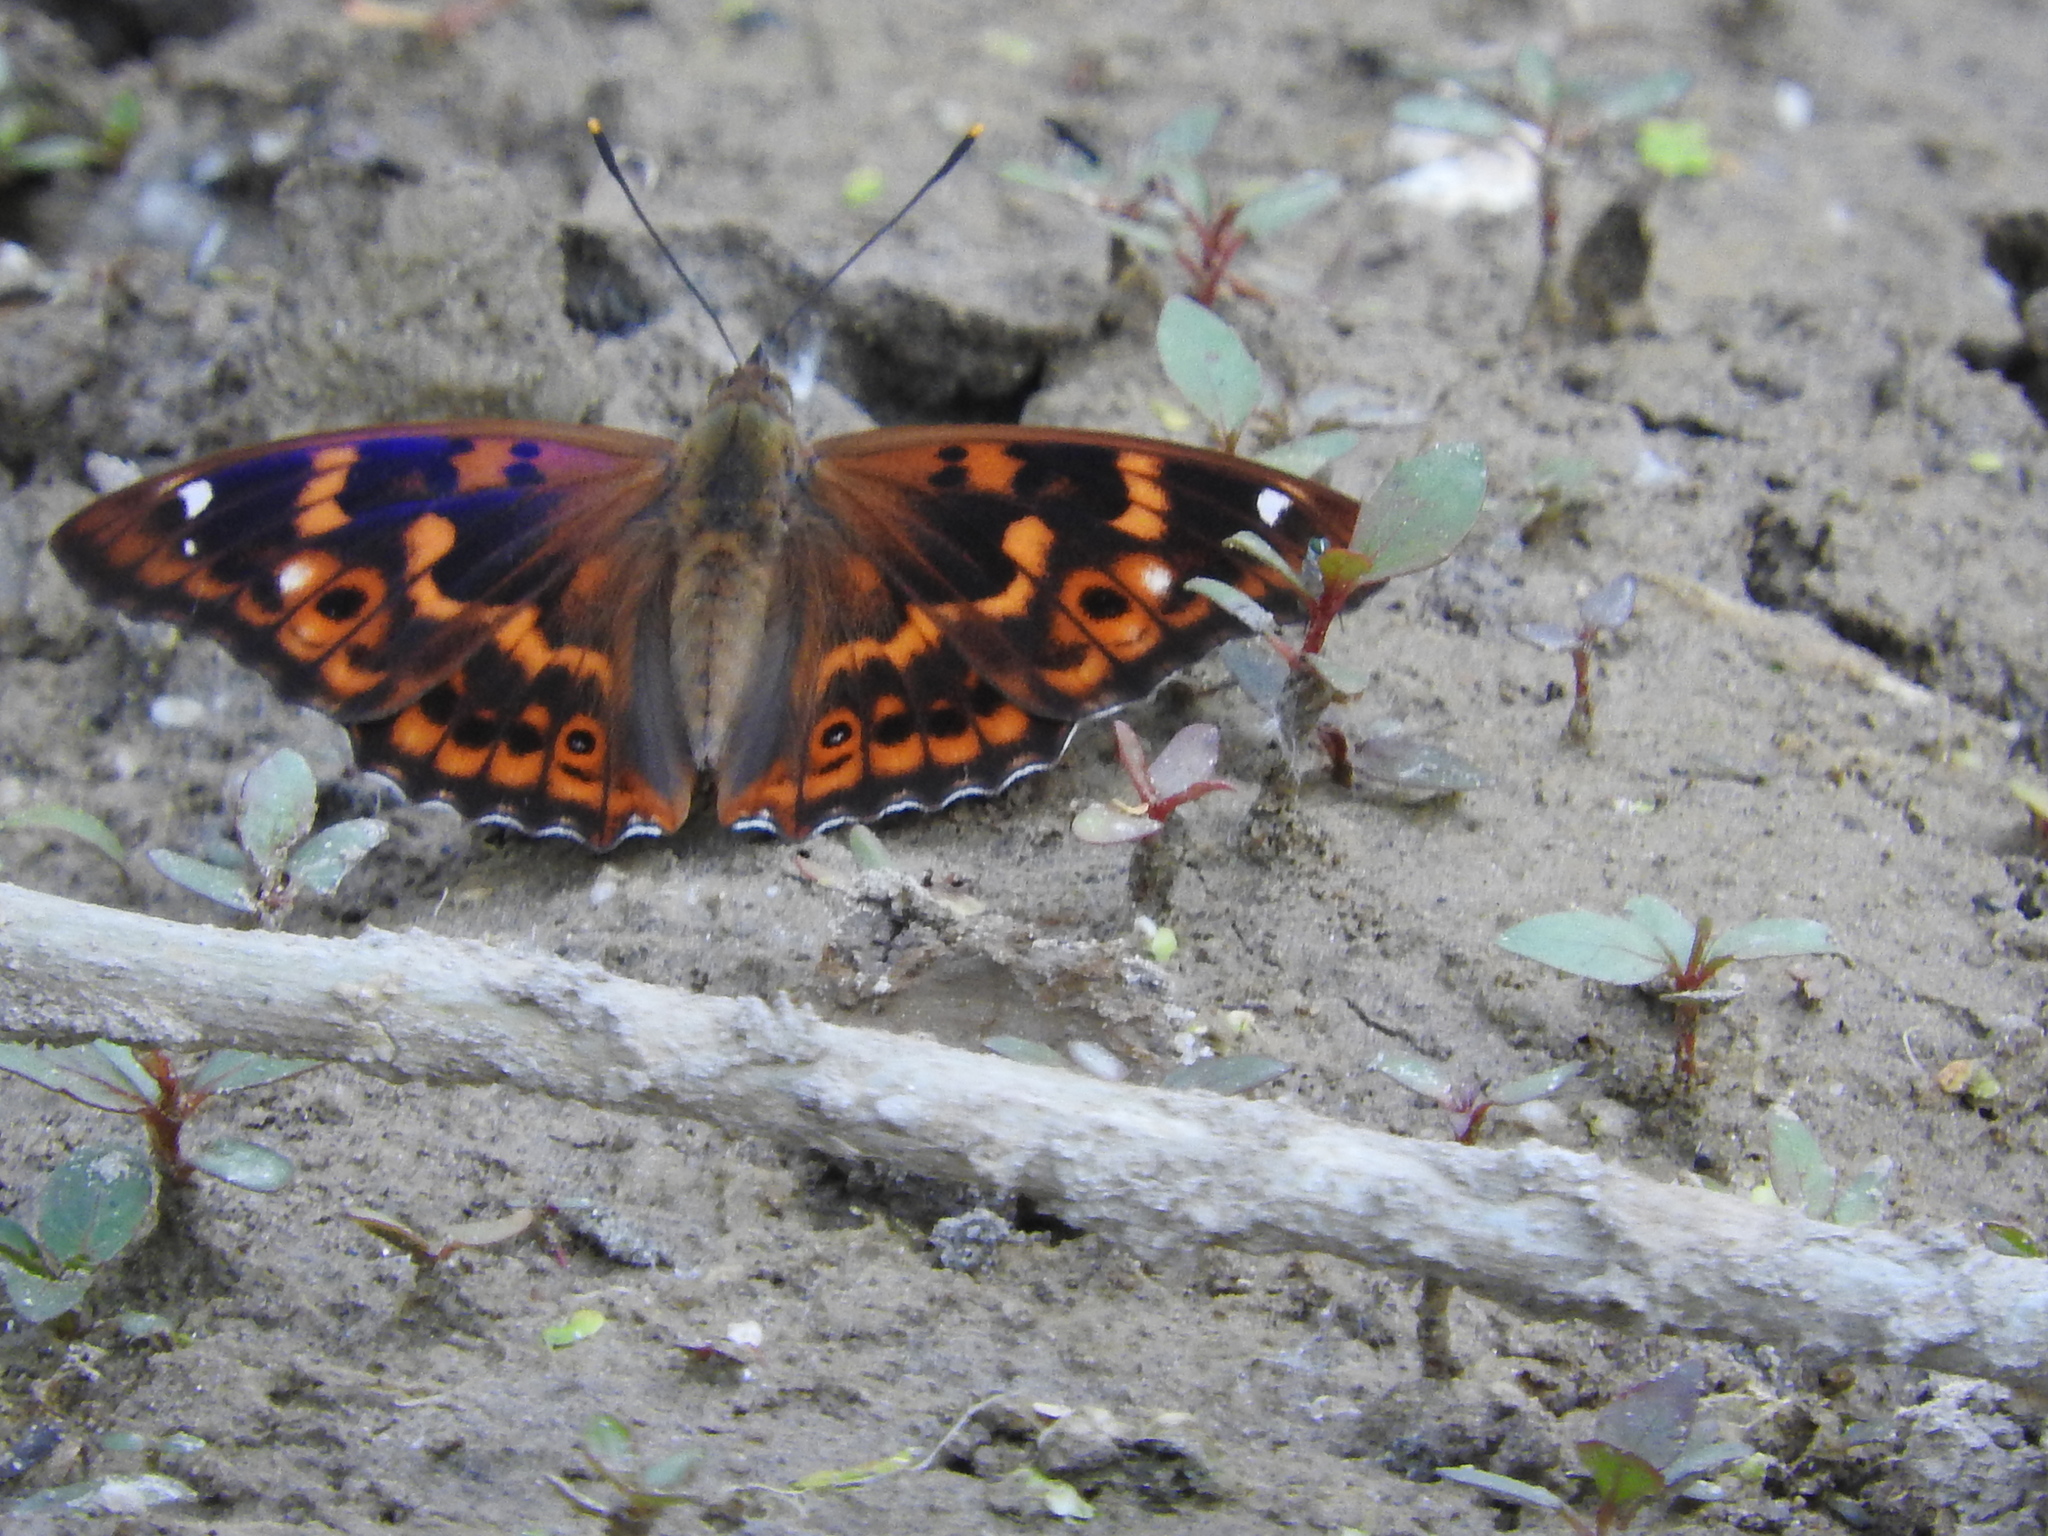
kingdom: Animalia
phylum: Arthropoda
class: Insecta
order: Lepidoptera
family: Nymphalidae
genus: Apatura
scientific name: Apatura ilia
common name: Lesser purple emperor
